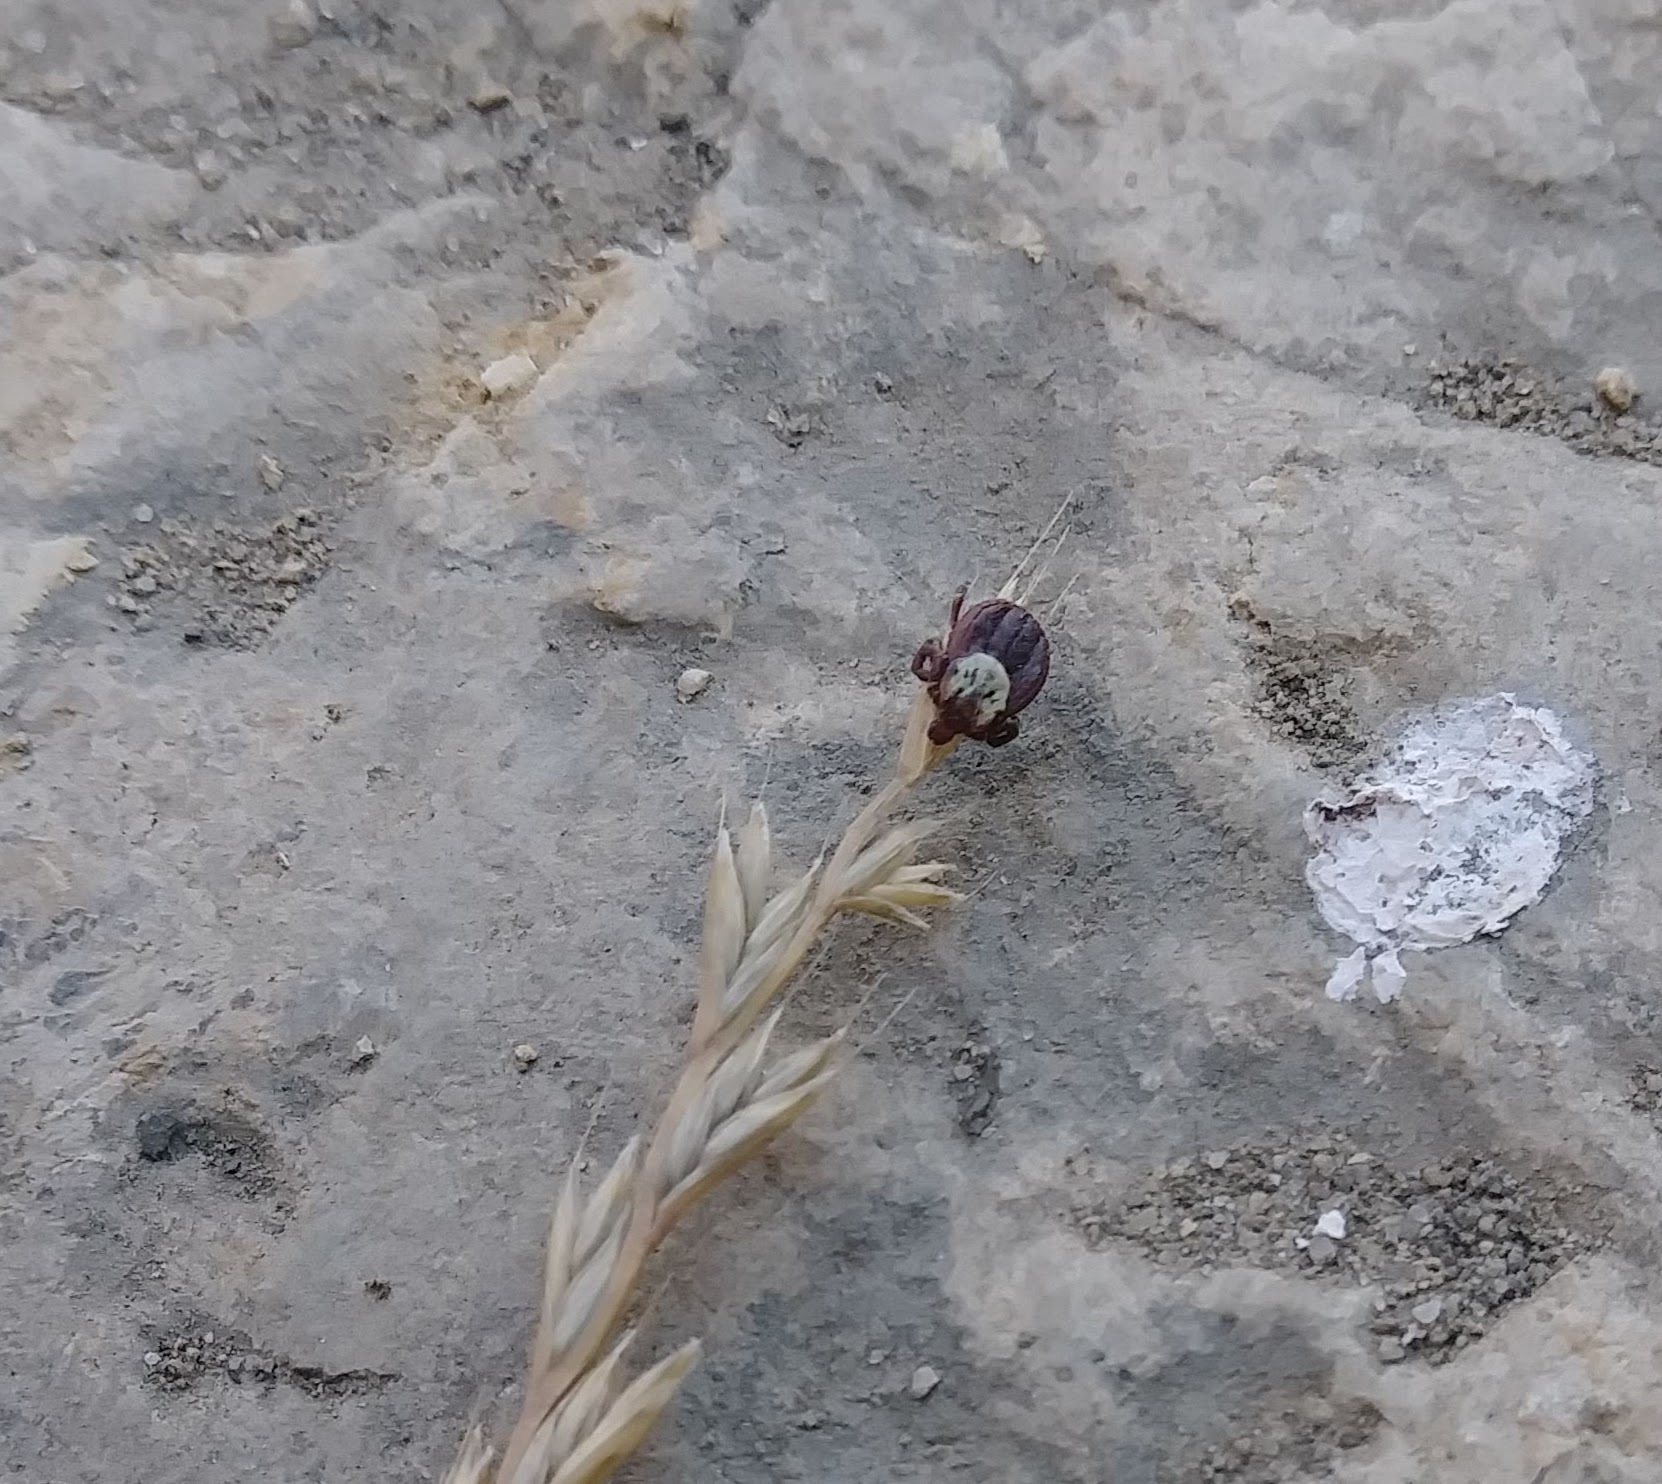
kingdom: Animalia
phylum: Arthropoda
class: Arachnida
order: Ixodida
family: Ixodidae
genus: Dermacentor
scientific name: Dermacentor variabilis
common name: American dog tick
